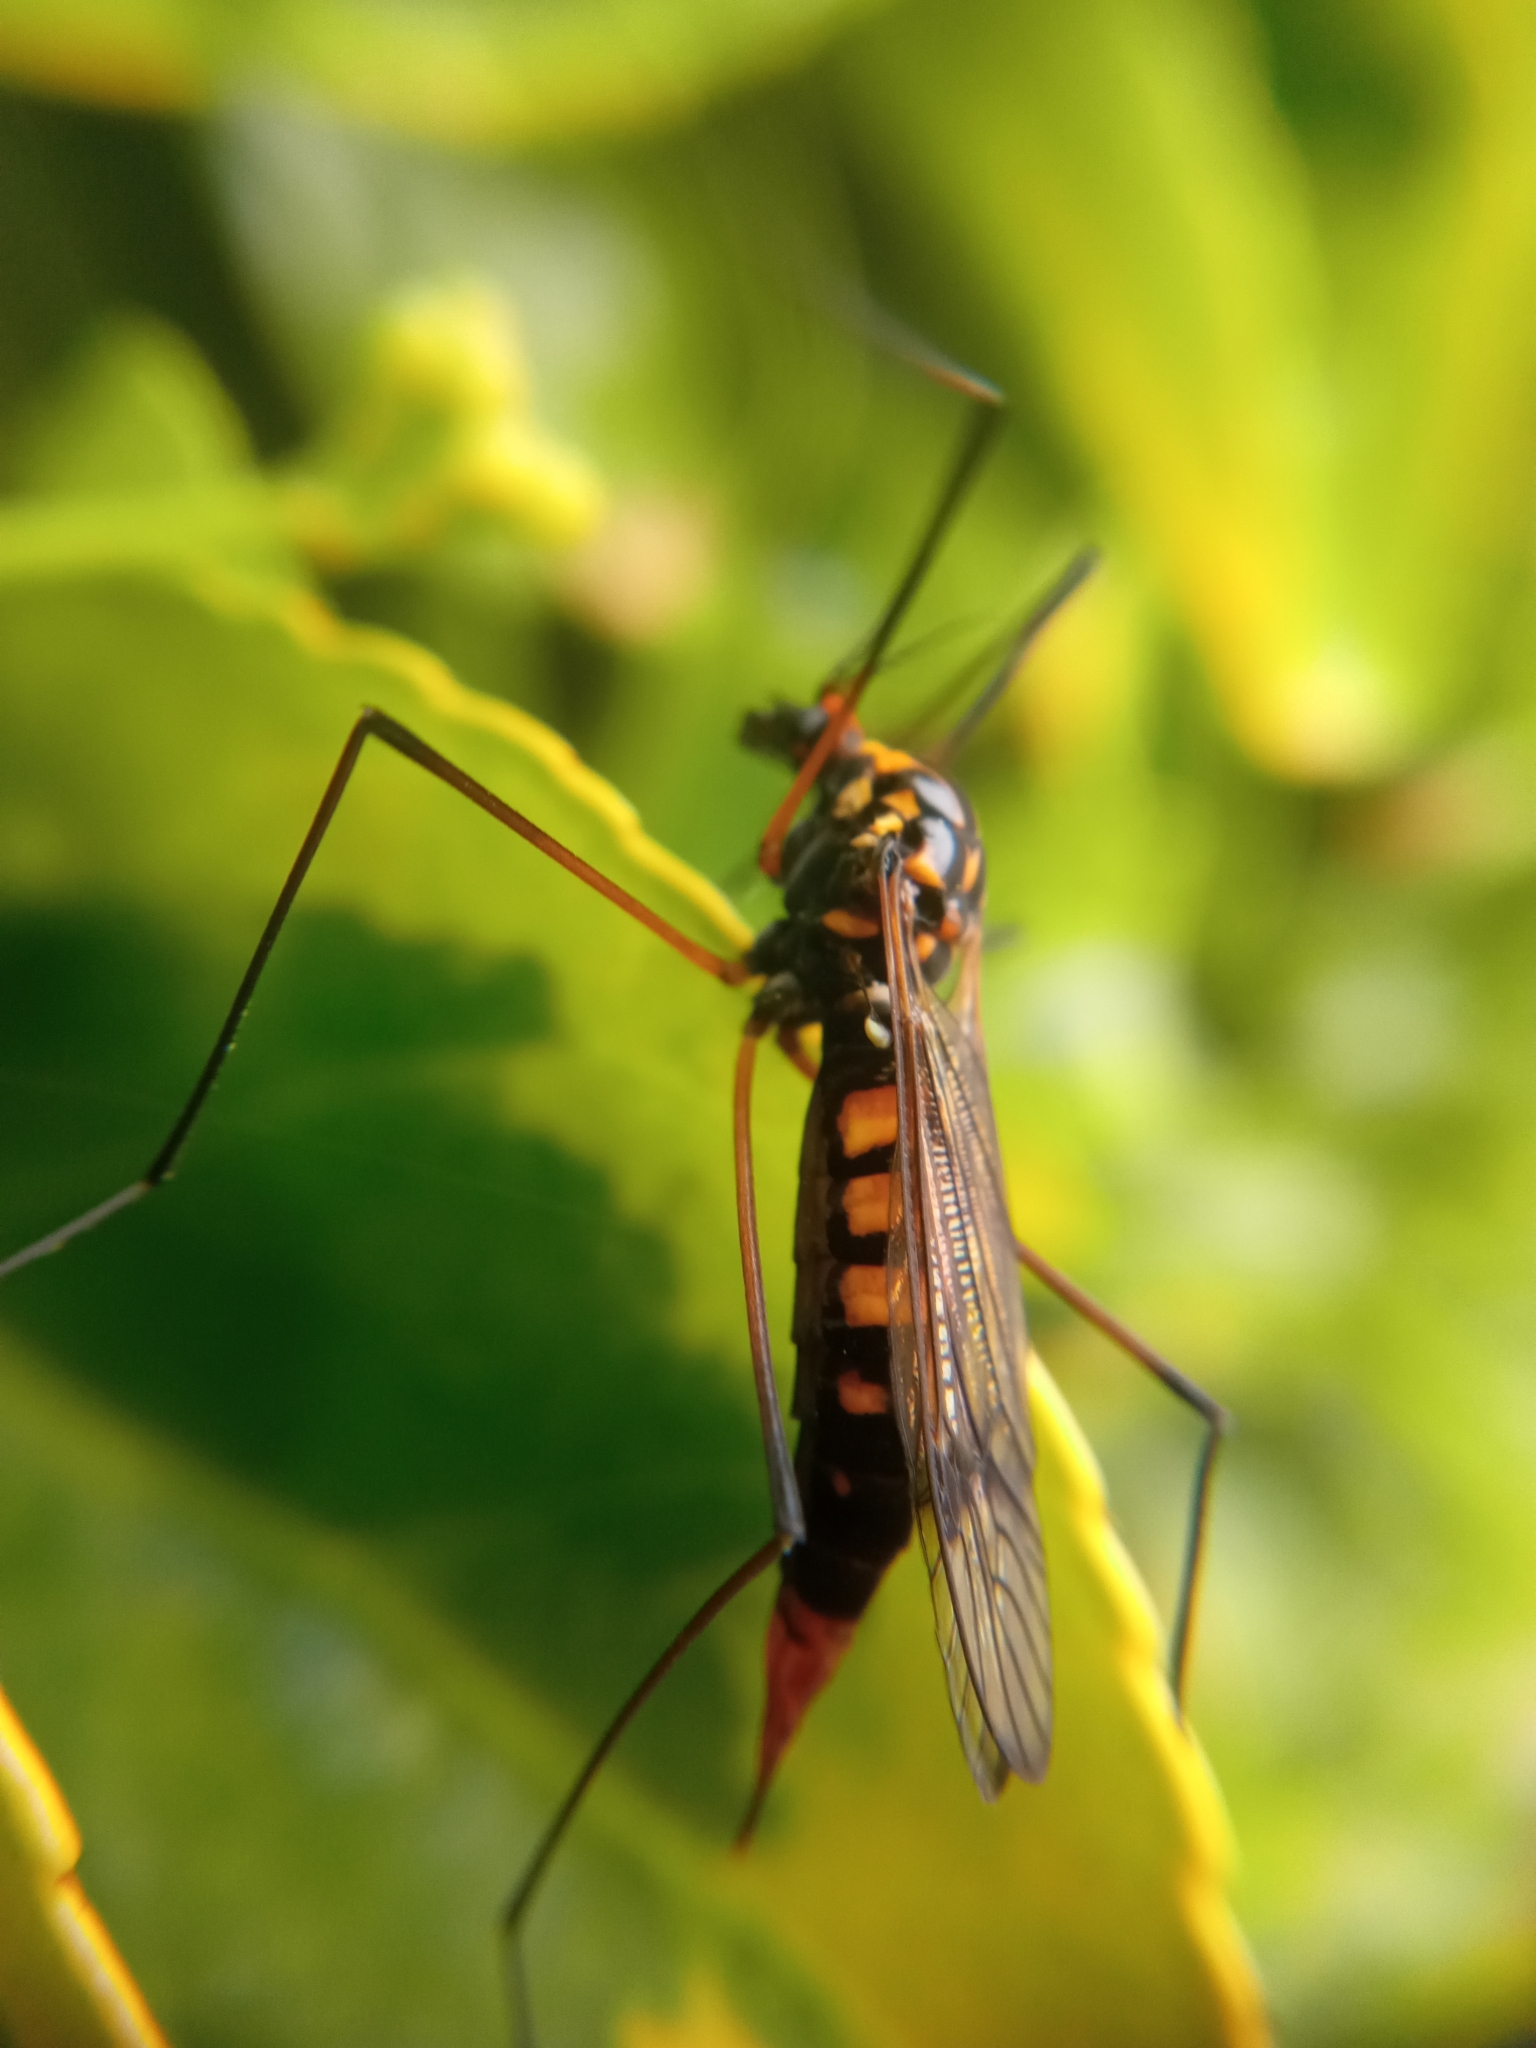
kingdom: Animalia
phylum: Arthropoda
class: Insecta
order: Diptera
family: Tipulidae
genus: Nephrotoma
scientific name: Nephrotoma crocata
